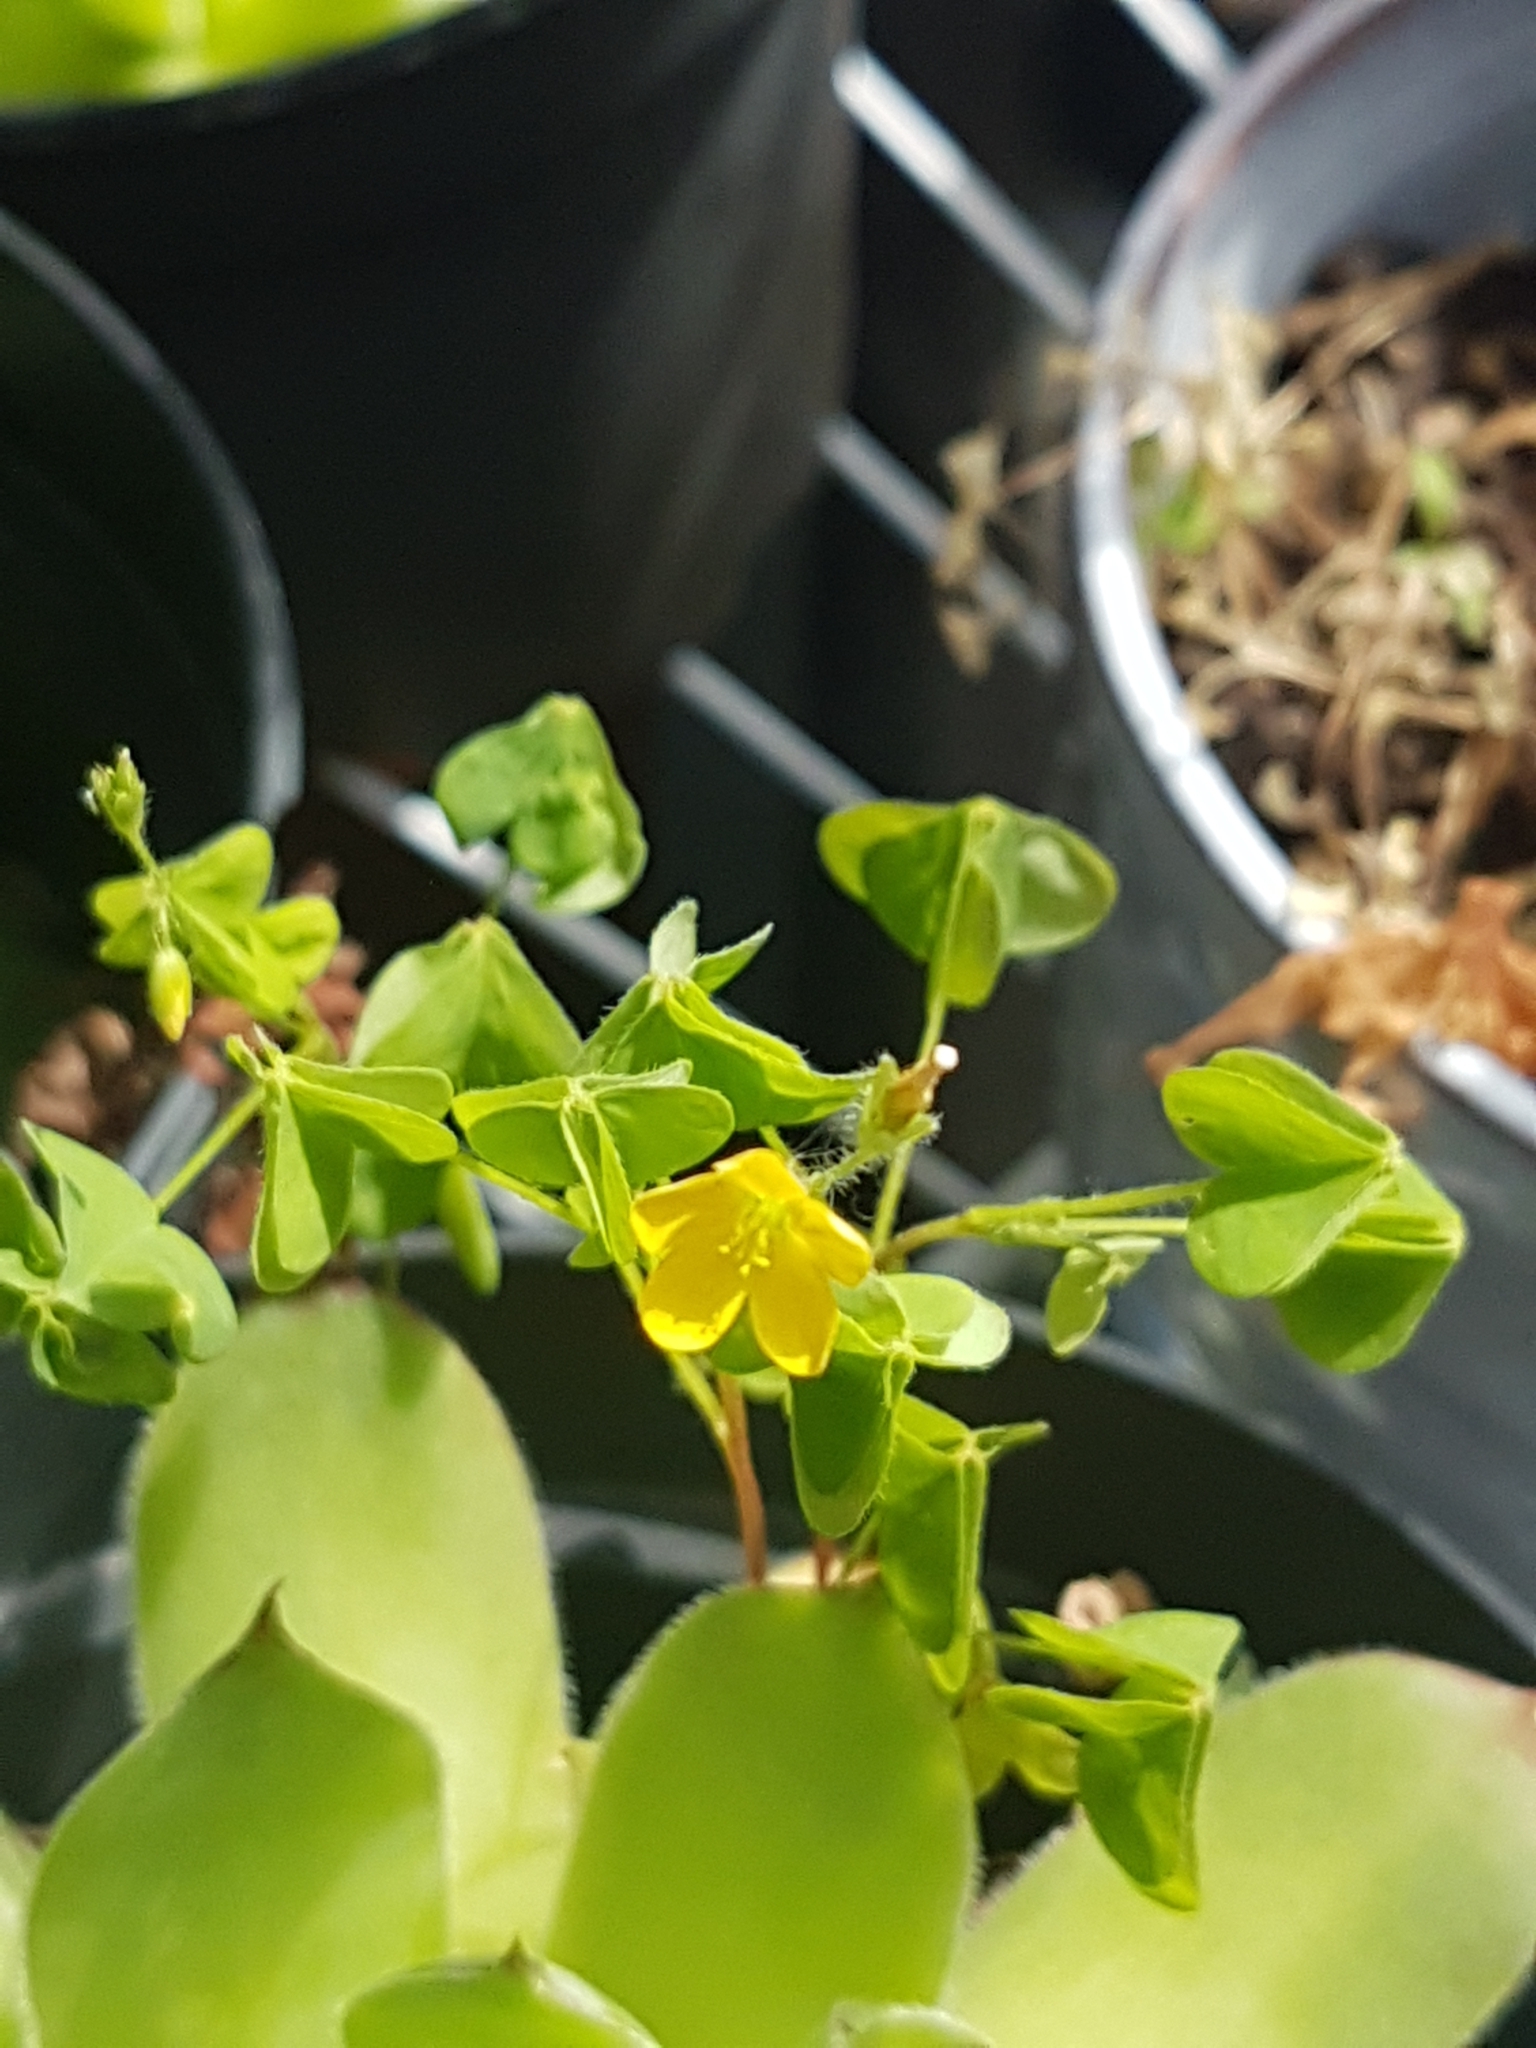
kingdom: Plantae
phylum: Tracheophyta
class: Magnoliopsida
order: Oxalidales
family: Oxalidaceae
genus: Oxalis
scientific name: Oxalis stricta
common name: Upright yellow-sorrel
